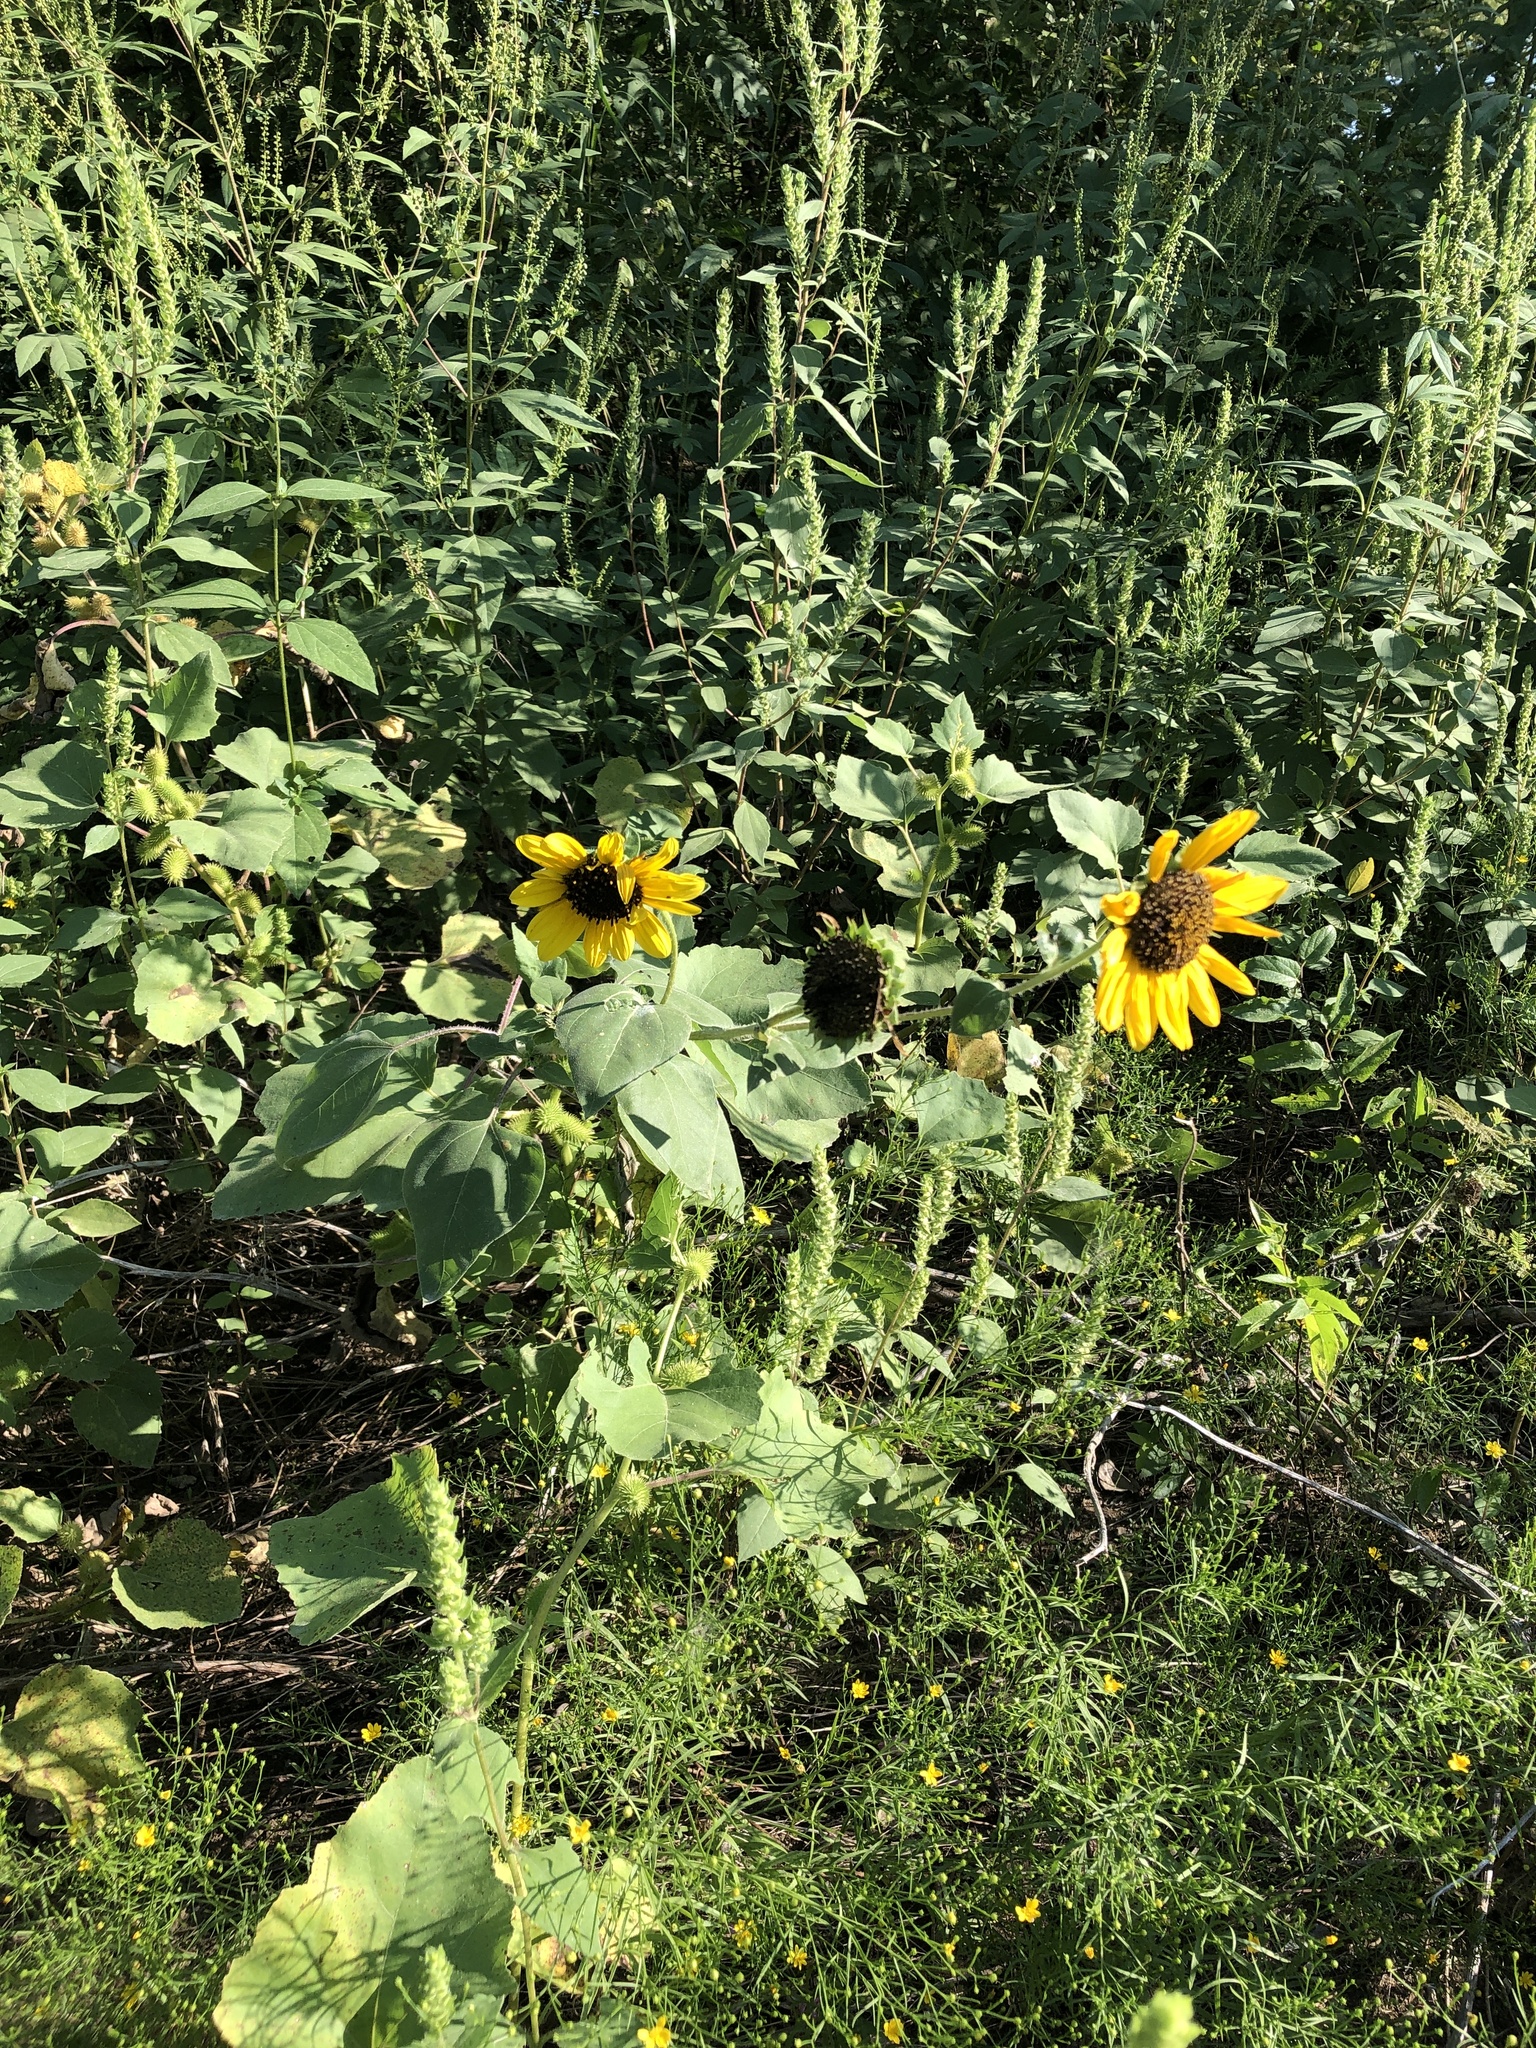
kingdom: Plantae
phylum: Tracheophyta
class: Magnoliopsida
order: Asterales
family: Asteraceae
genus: Helianthus
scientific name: Helianthus annuus
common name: Sunflower
